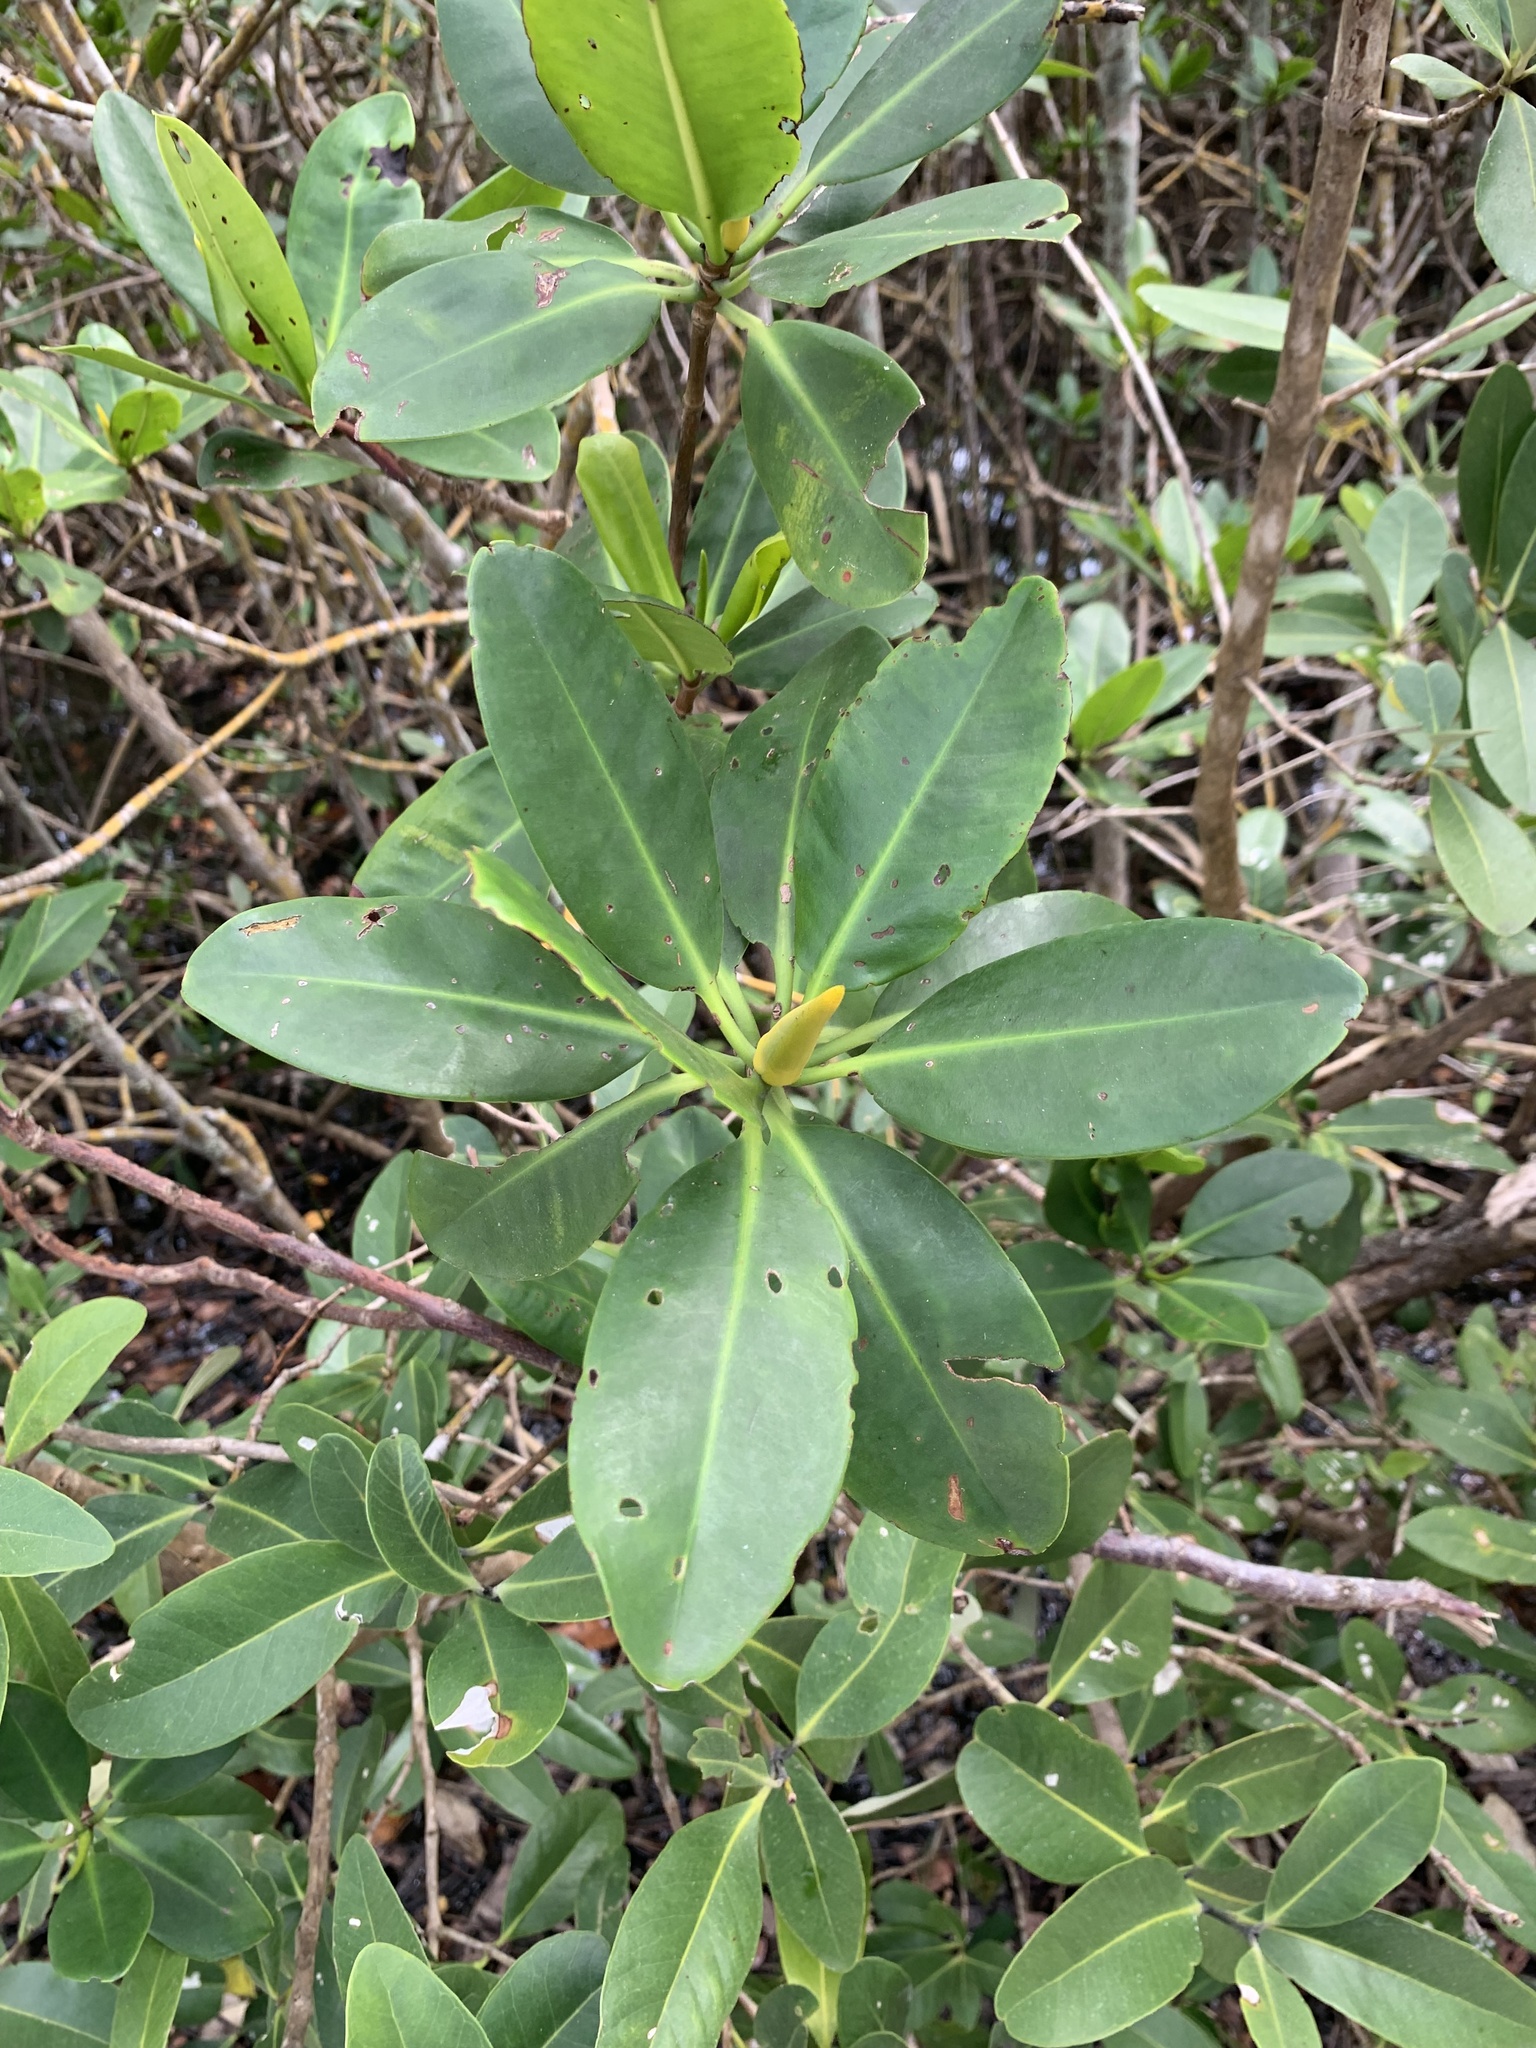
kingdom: Plantae
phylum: Tracheophyta
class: Magnoliopsida
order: Malpighiales
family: Rhizophoraceae
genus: Rhizophora
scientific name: Rhizophora mangle
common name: Red mangrove
